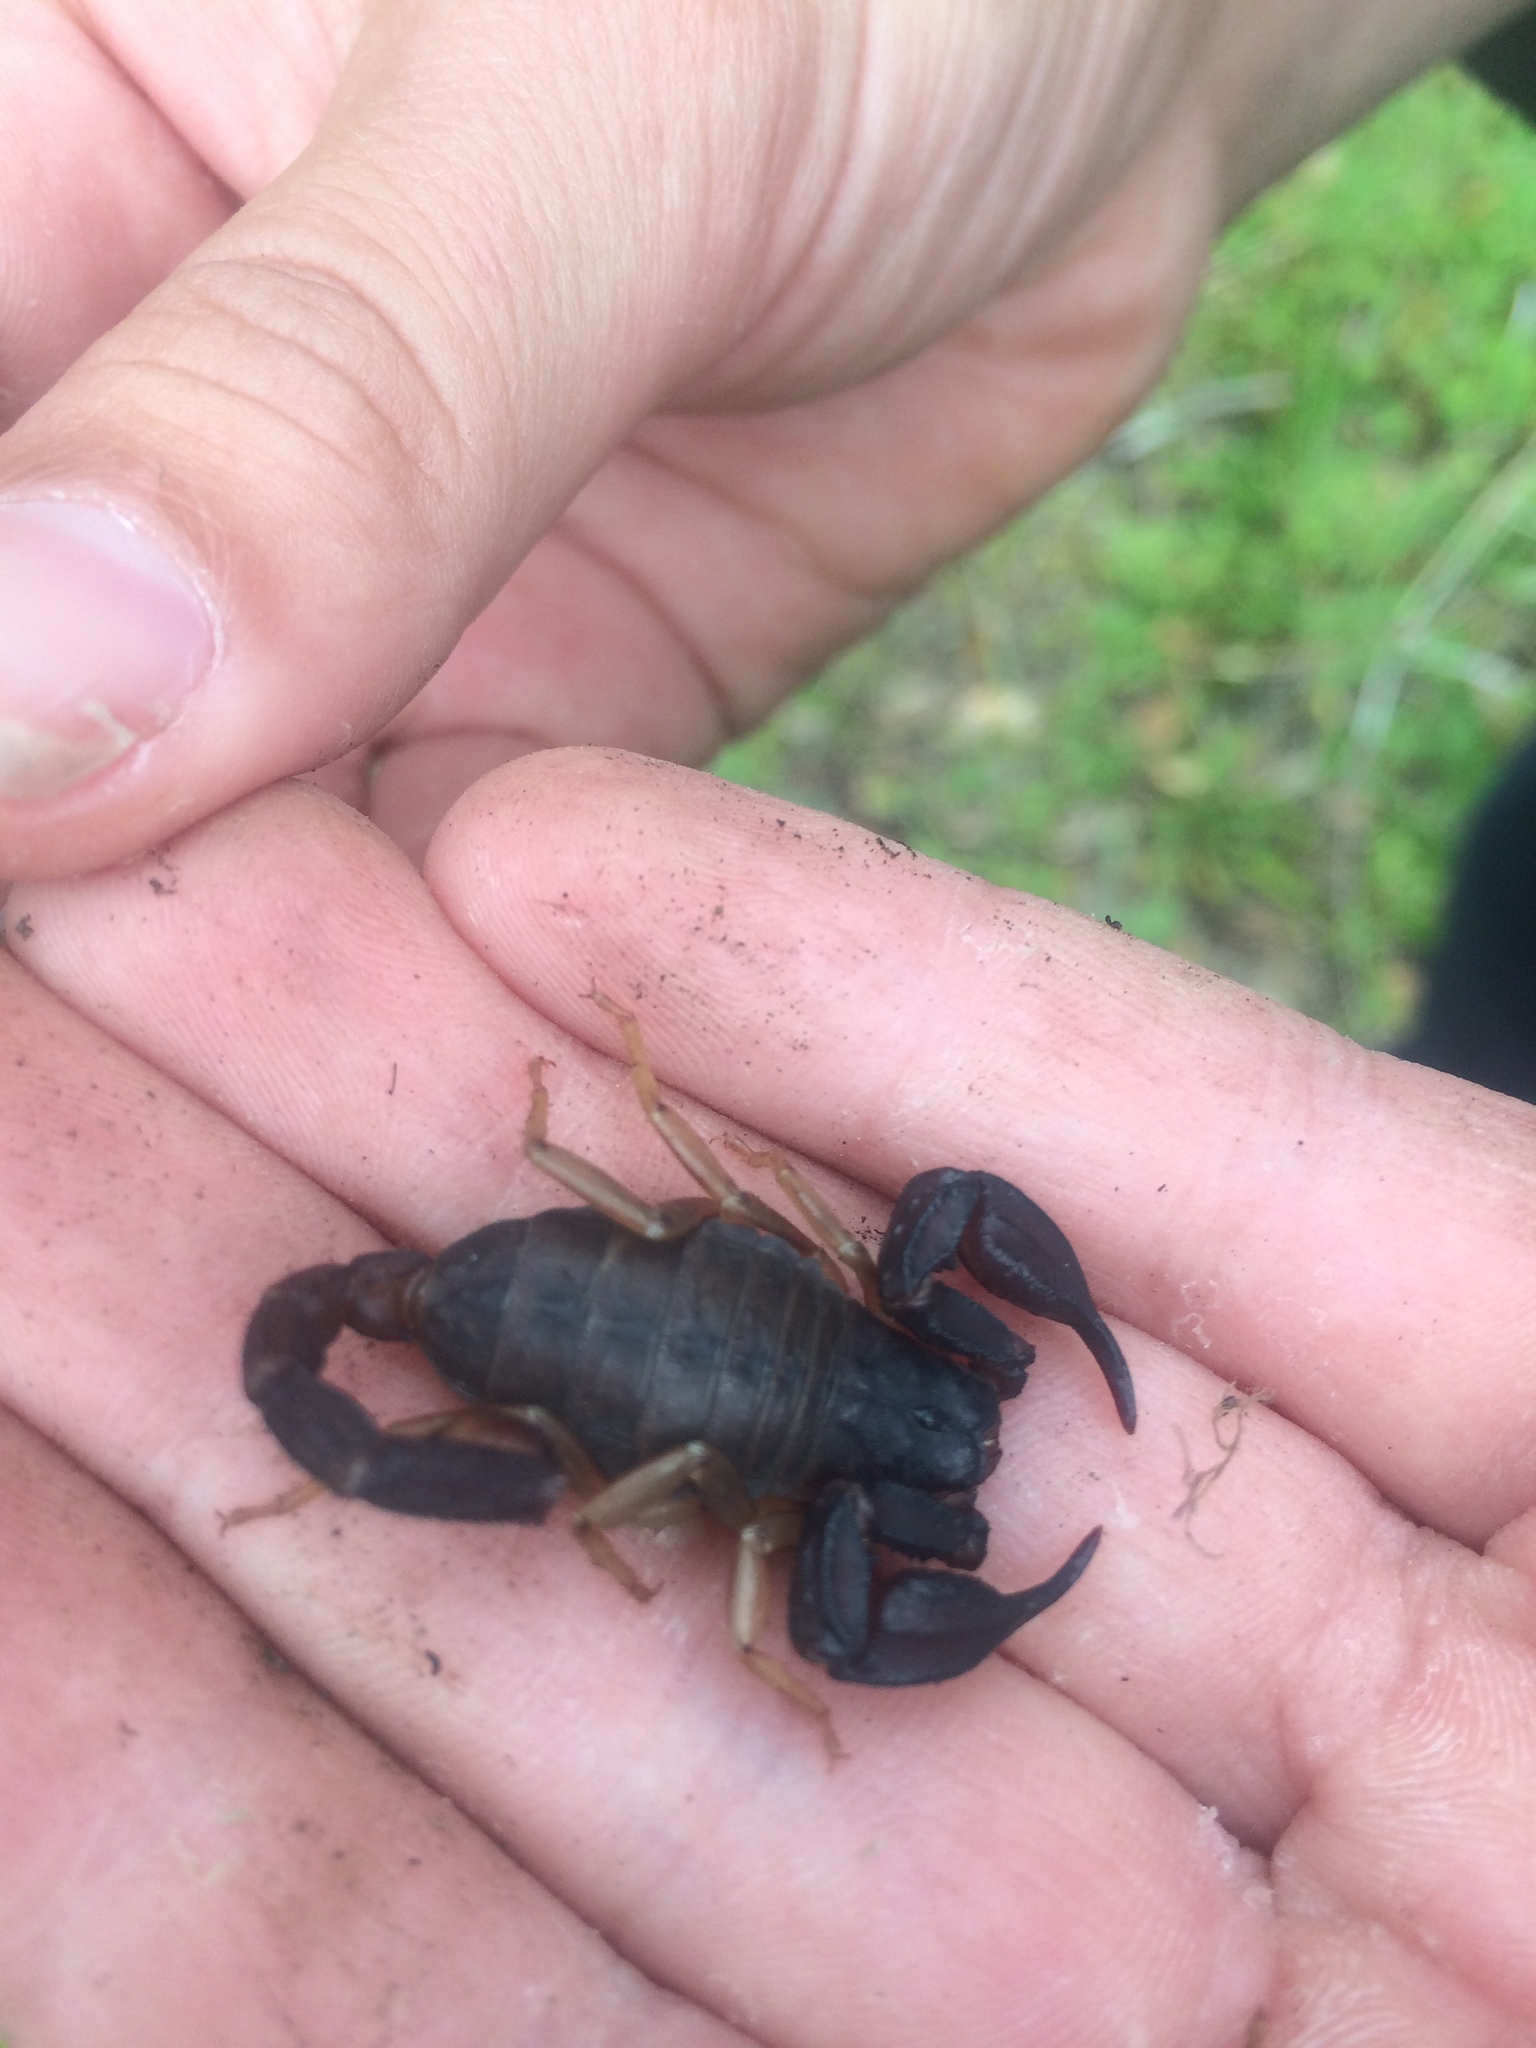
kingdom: Animalia
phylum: Arthropoda
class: Arachnida
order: Scorpiones
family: Chactidae
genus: Uroctonus
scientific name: Uroctonus mordax
